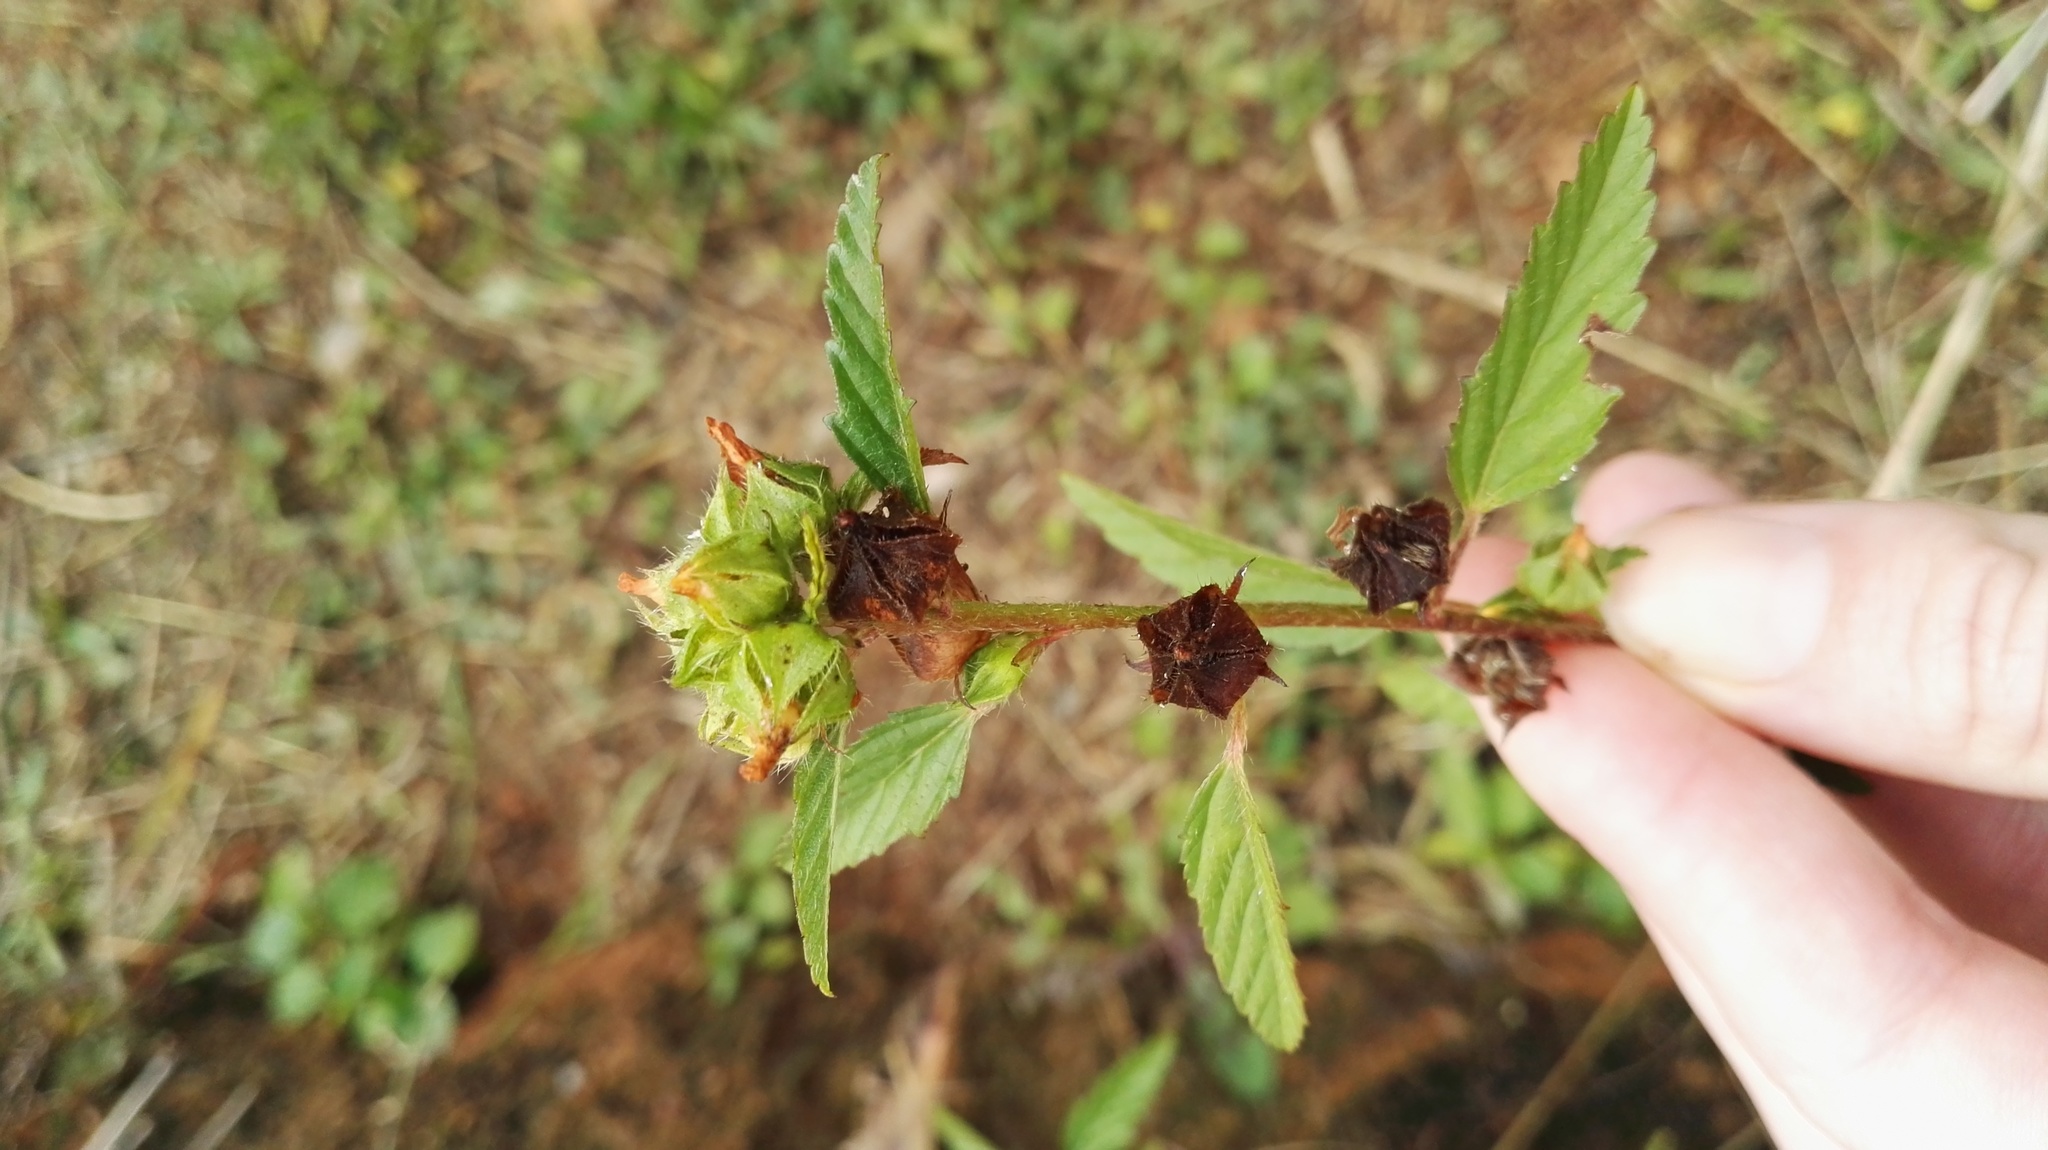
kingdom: Plantae
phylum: Tracheophyta
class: Magnoliopsida
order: Malvales
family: Malvaceae
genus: Sida
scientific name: Sida lancifolia
